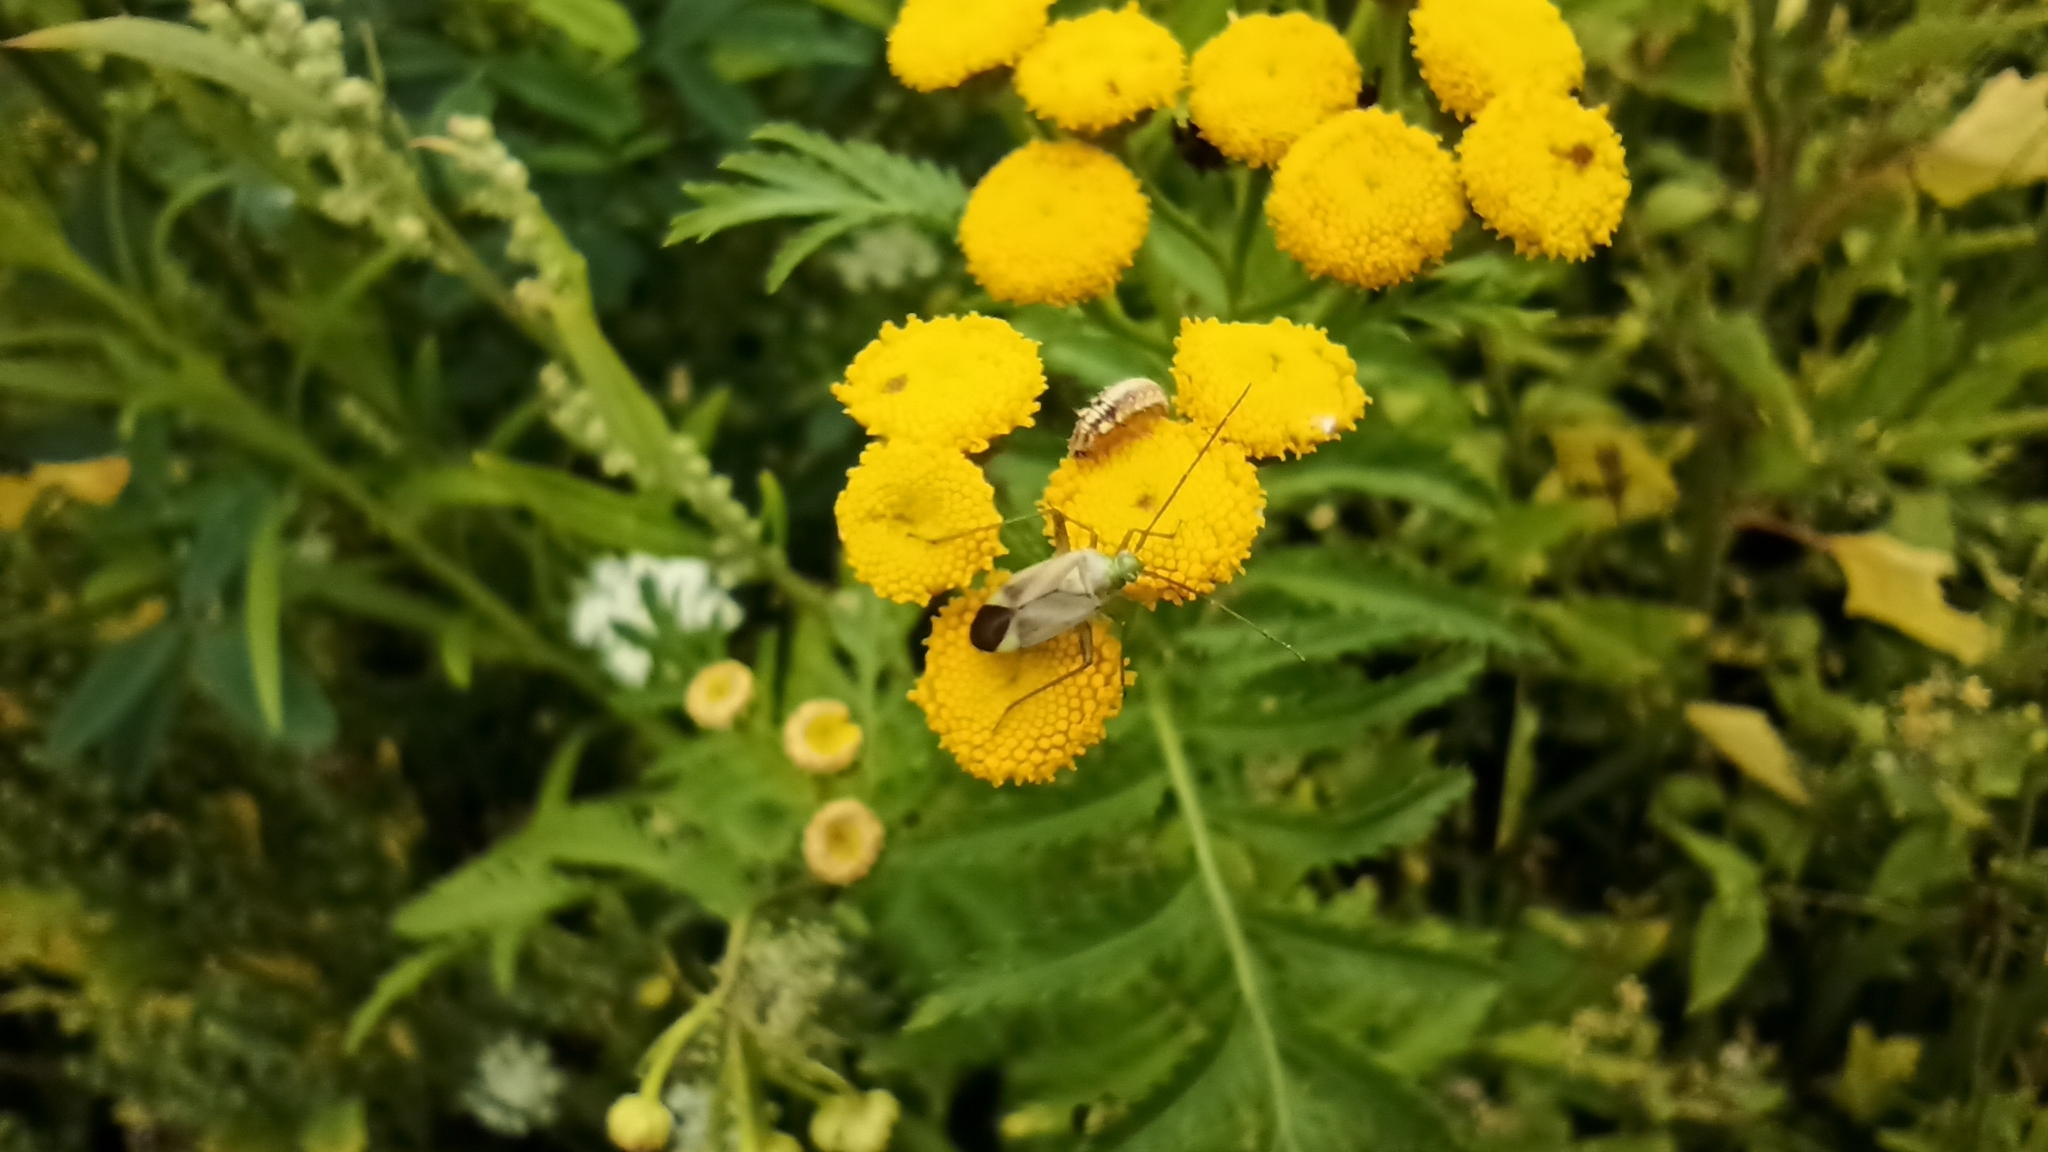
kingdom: Animalia
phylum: Arthropoda
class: Insecta
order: Hemiptera
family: Miridae
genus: Adelphocoris
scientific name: Adelphocoris lineolatus
